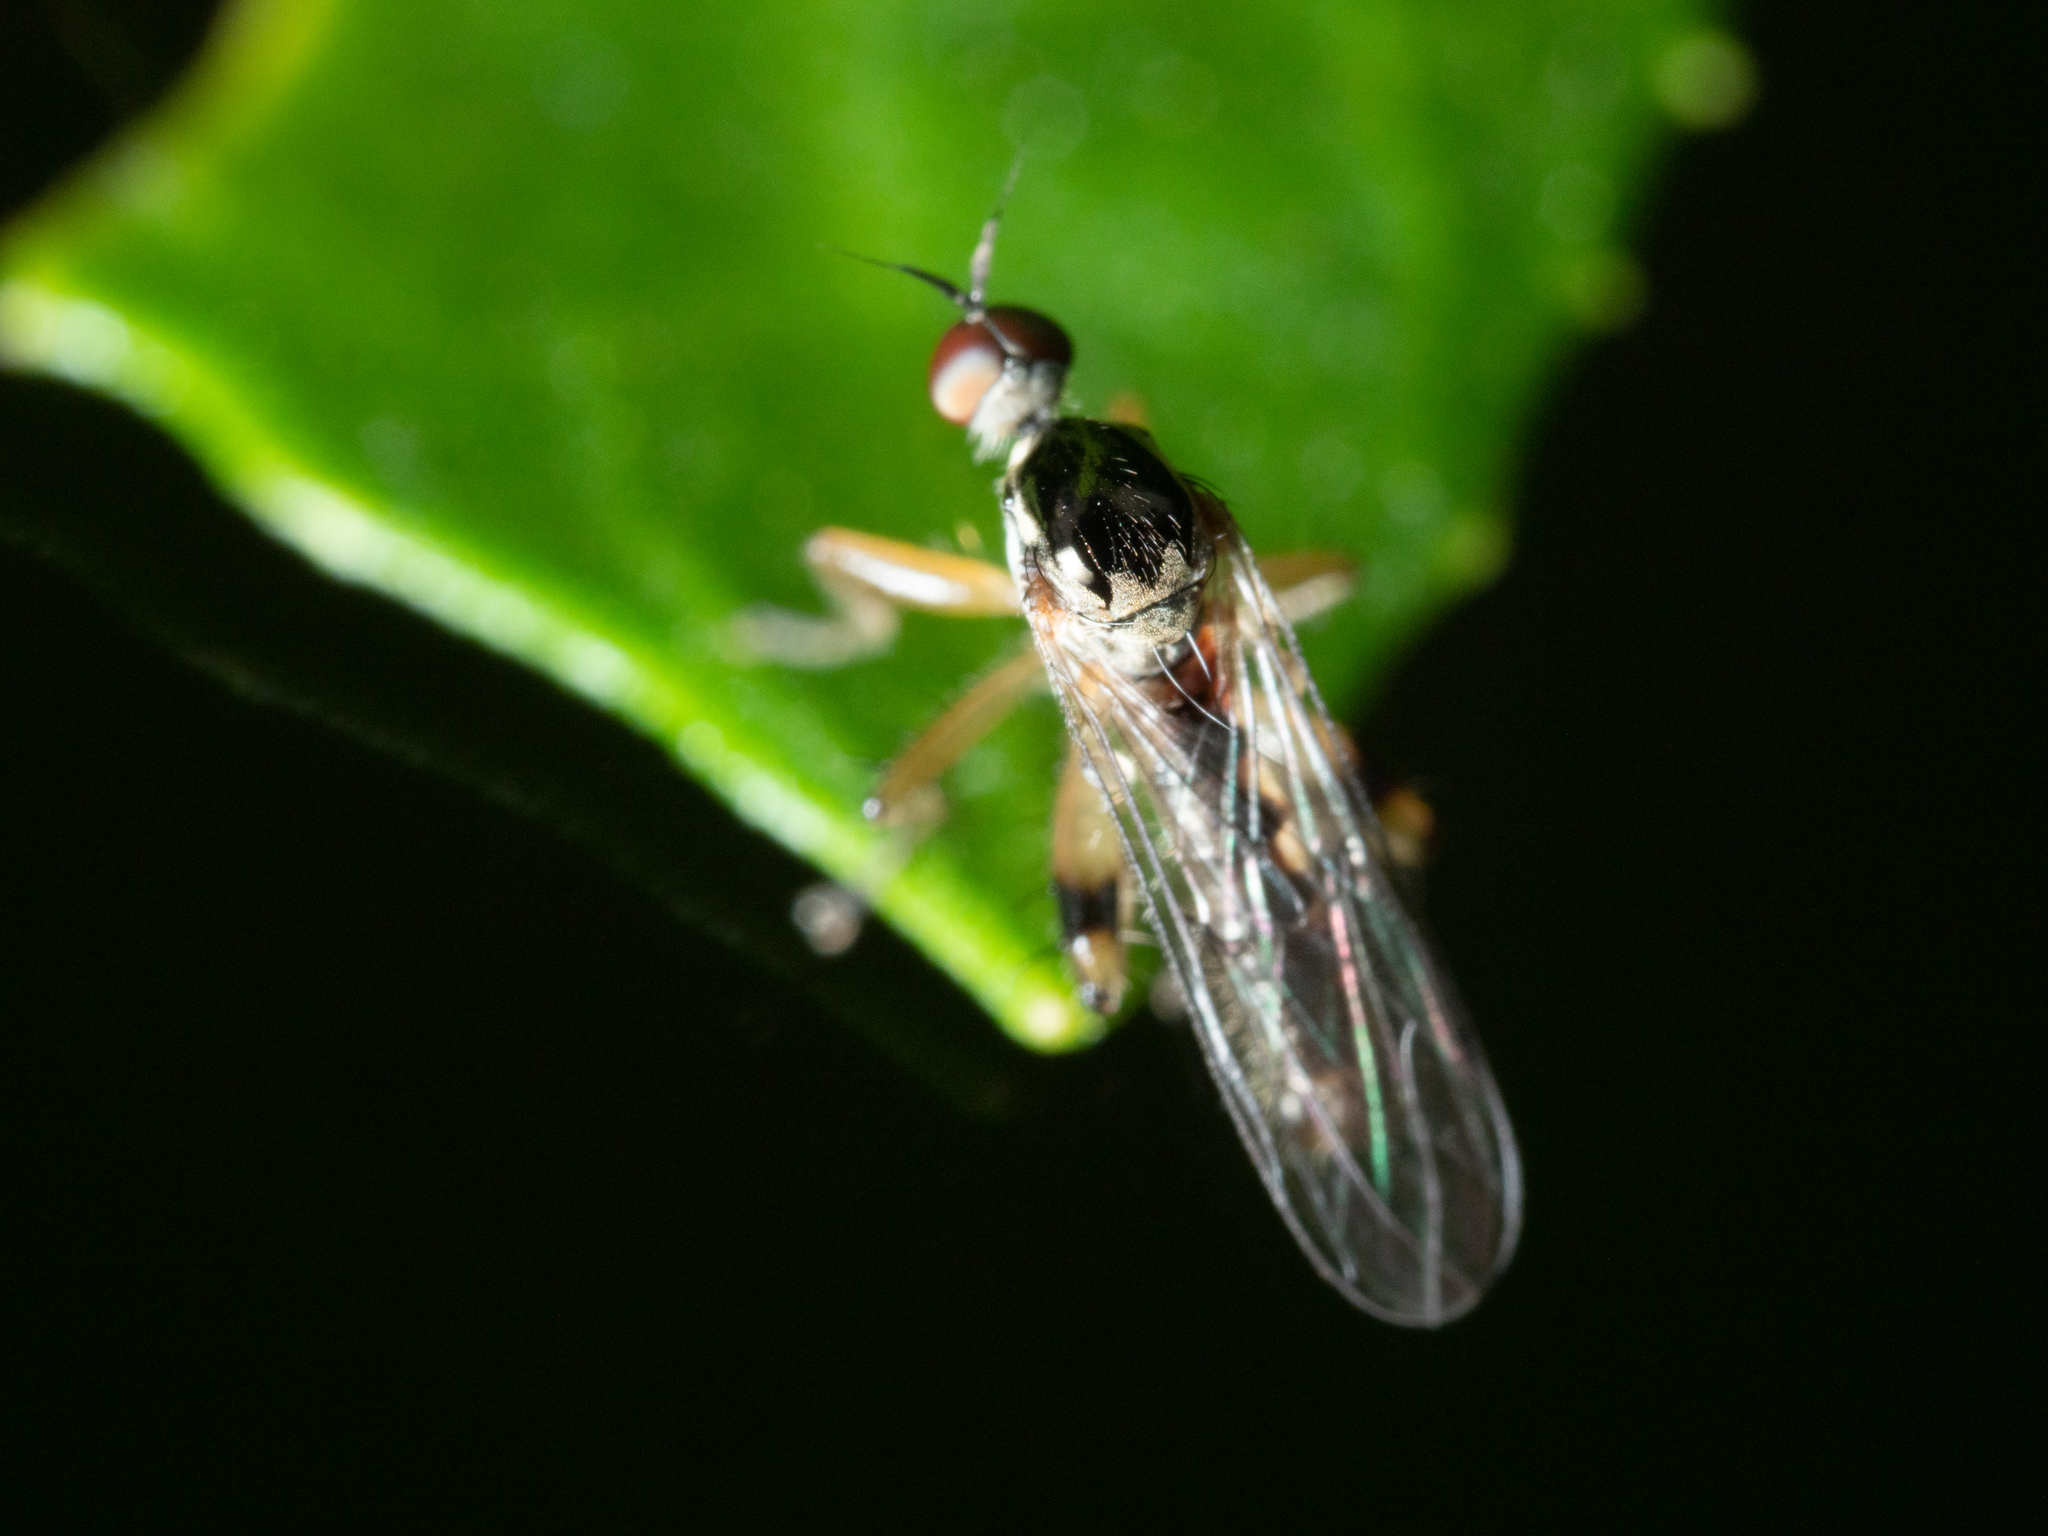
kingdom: Animalia
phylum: Arthropoda
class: Insecta
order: Diptera
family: Hybotidae
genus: Hoplopeza
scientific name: Hoplopeza pulcherrima
